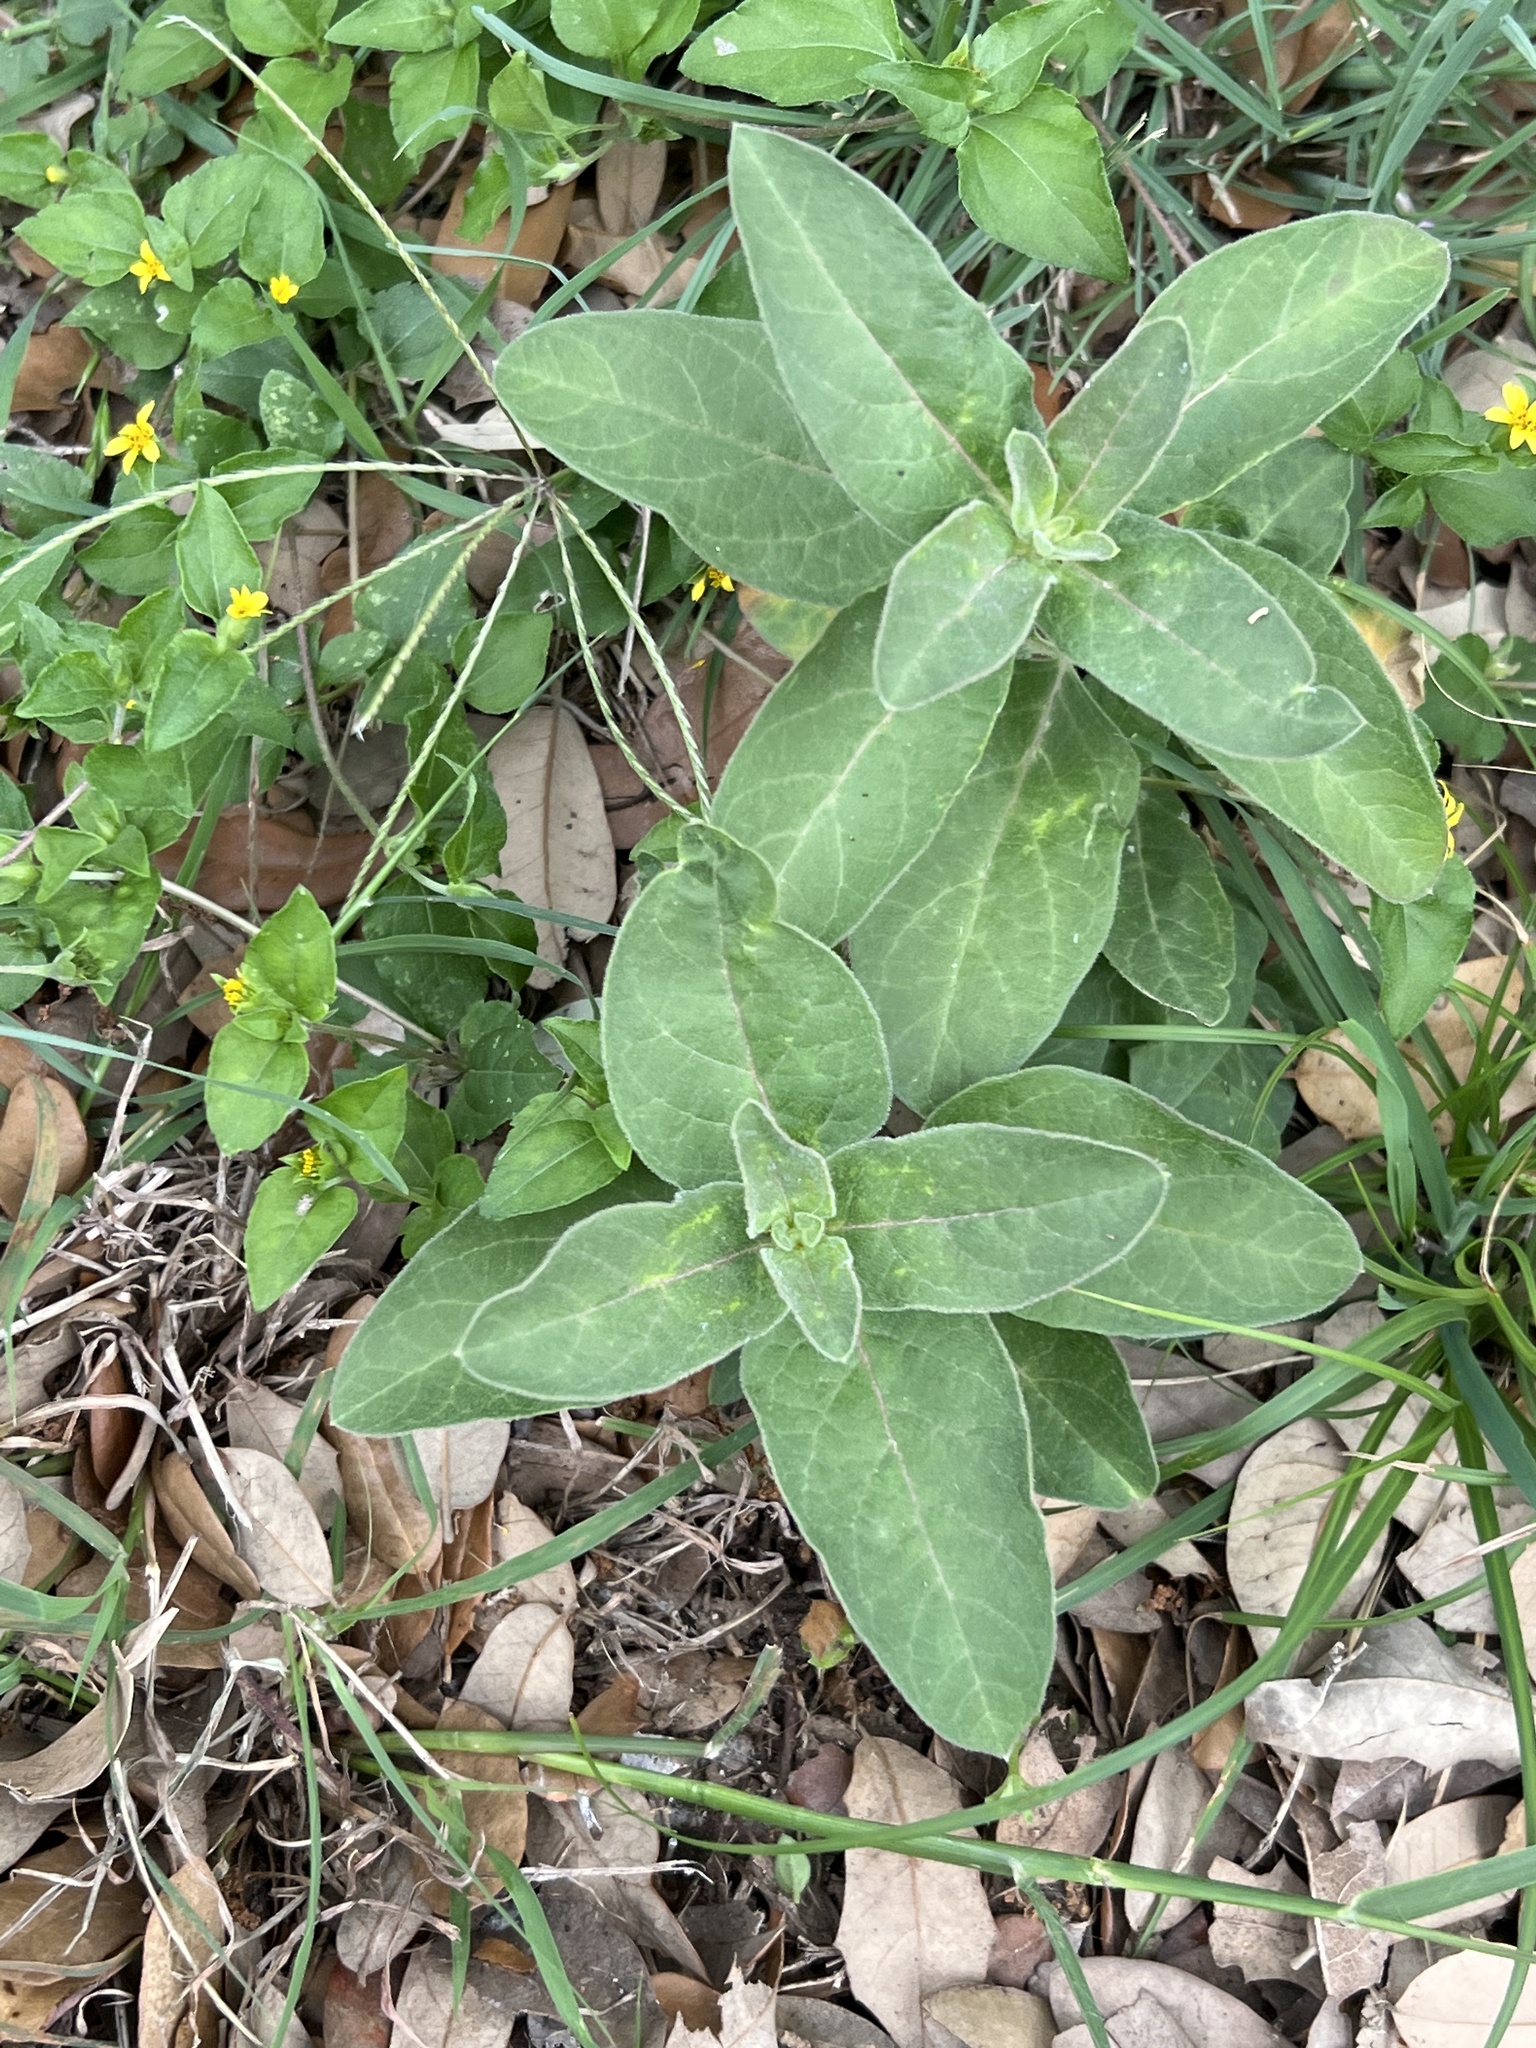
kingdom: Plantae
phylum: Tracheophyta
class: Magnoliopsida
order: Gentianales
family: Apocynaceae
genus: Asclepias
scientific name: Asclepias oenotheroides
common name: Zizotes milkweed
